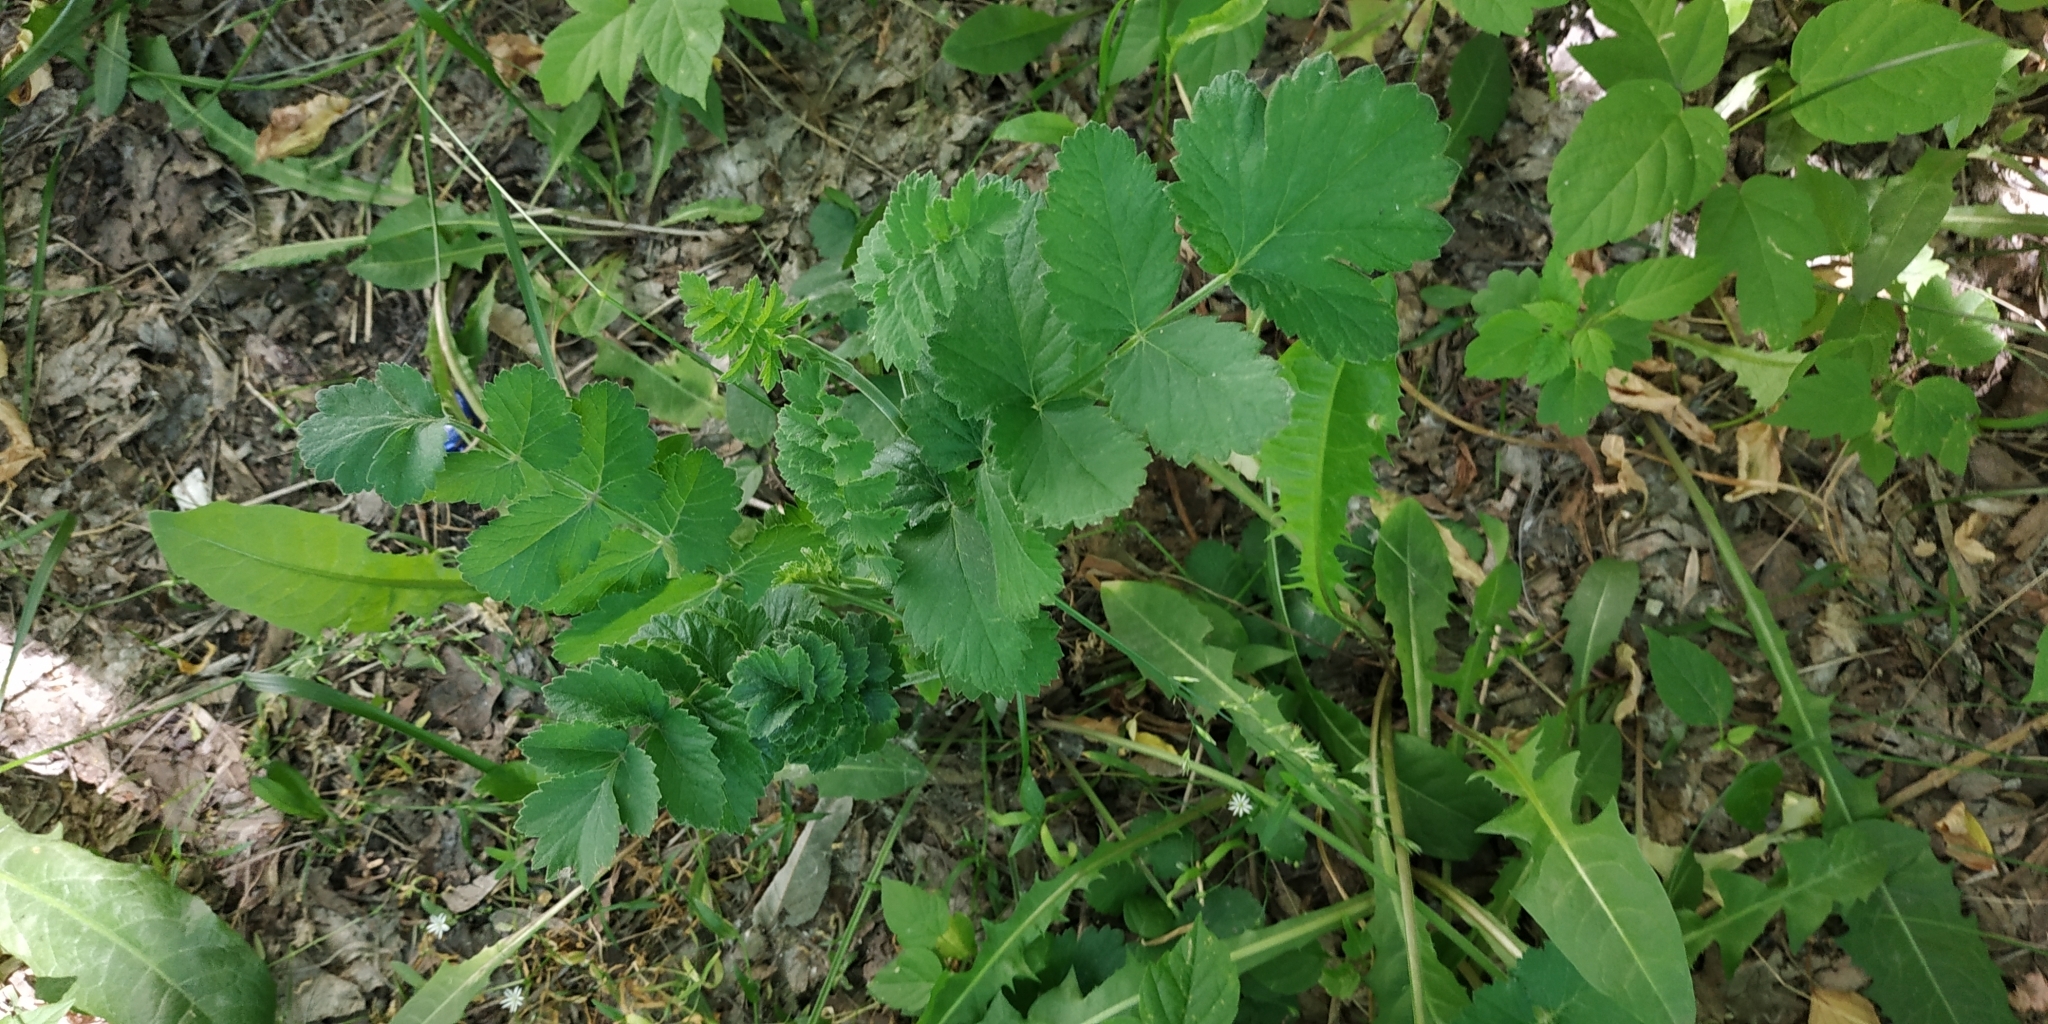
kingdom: Plantae
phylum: Tracheophyta
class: Magnoliopsida
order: Apiales
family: Apiaceae
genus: Pimpinella
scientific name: Pimpinella saxifraga
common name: Burnet-saxifrage
